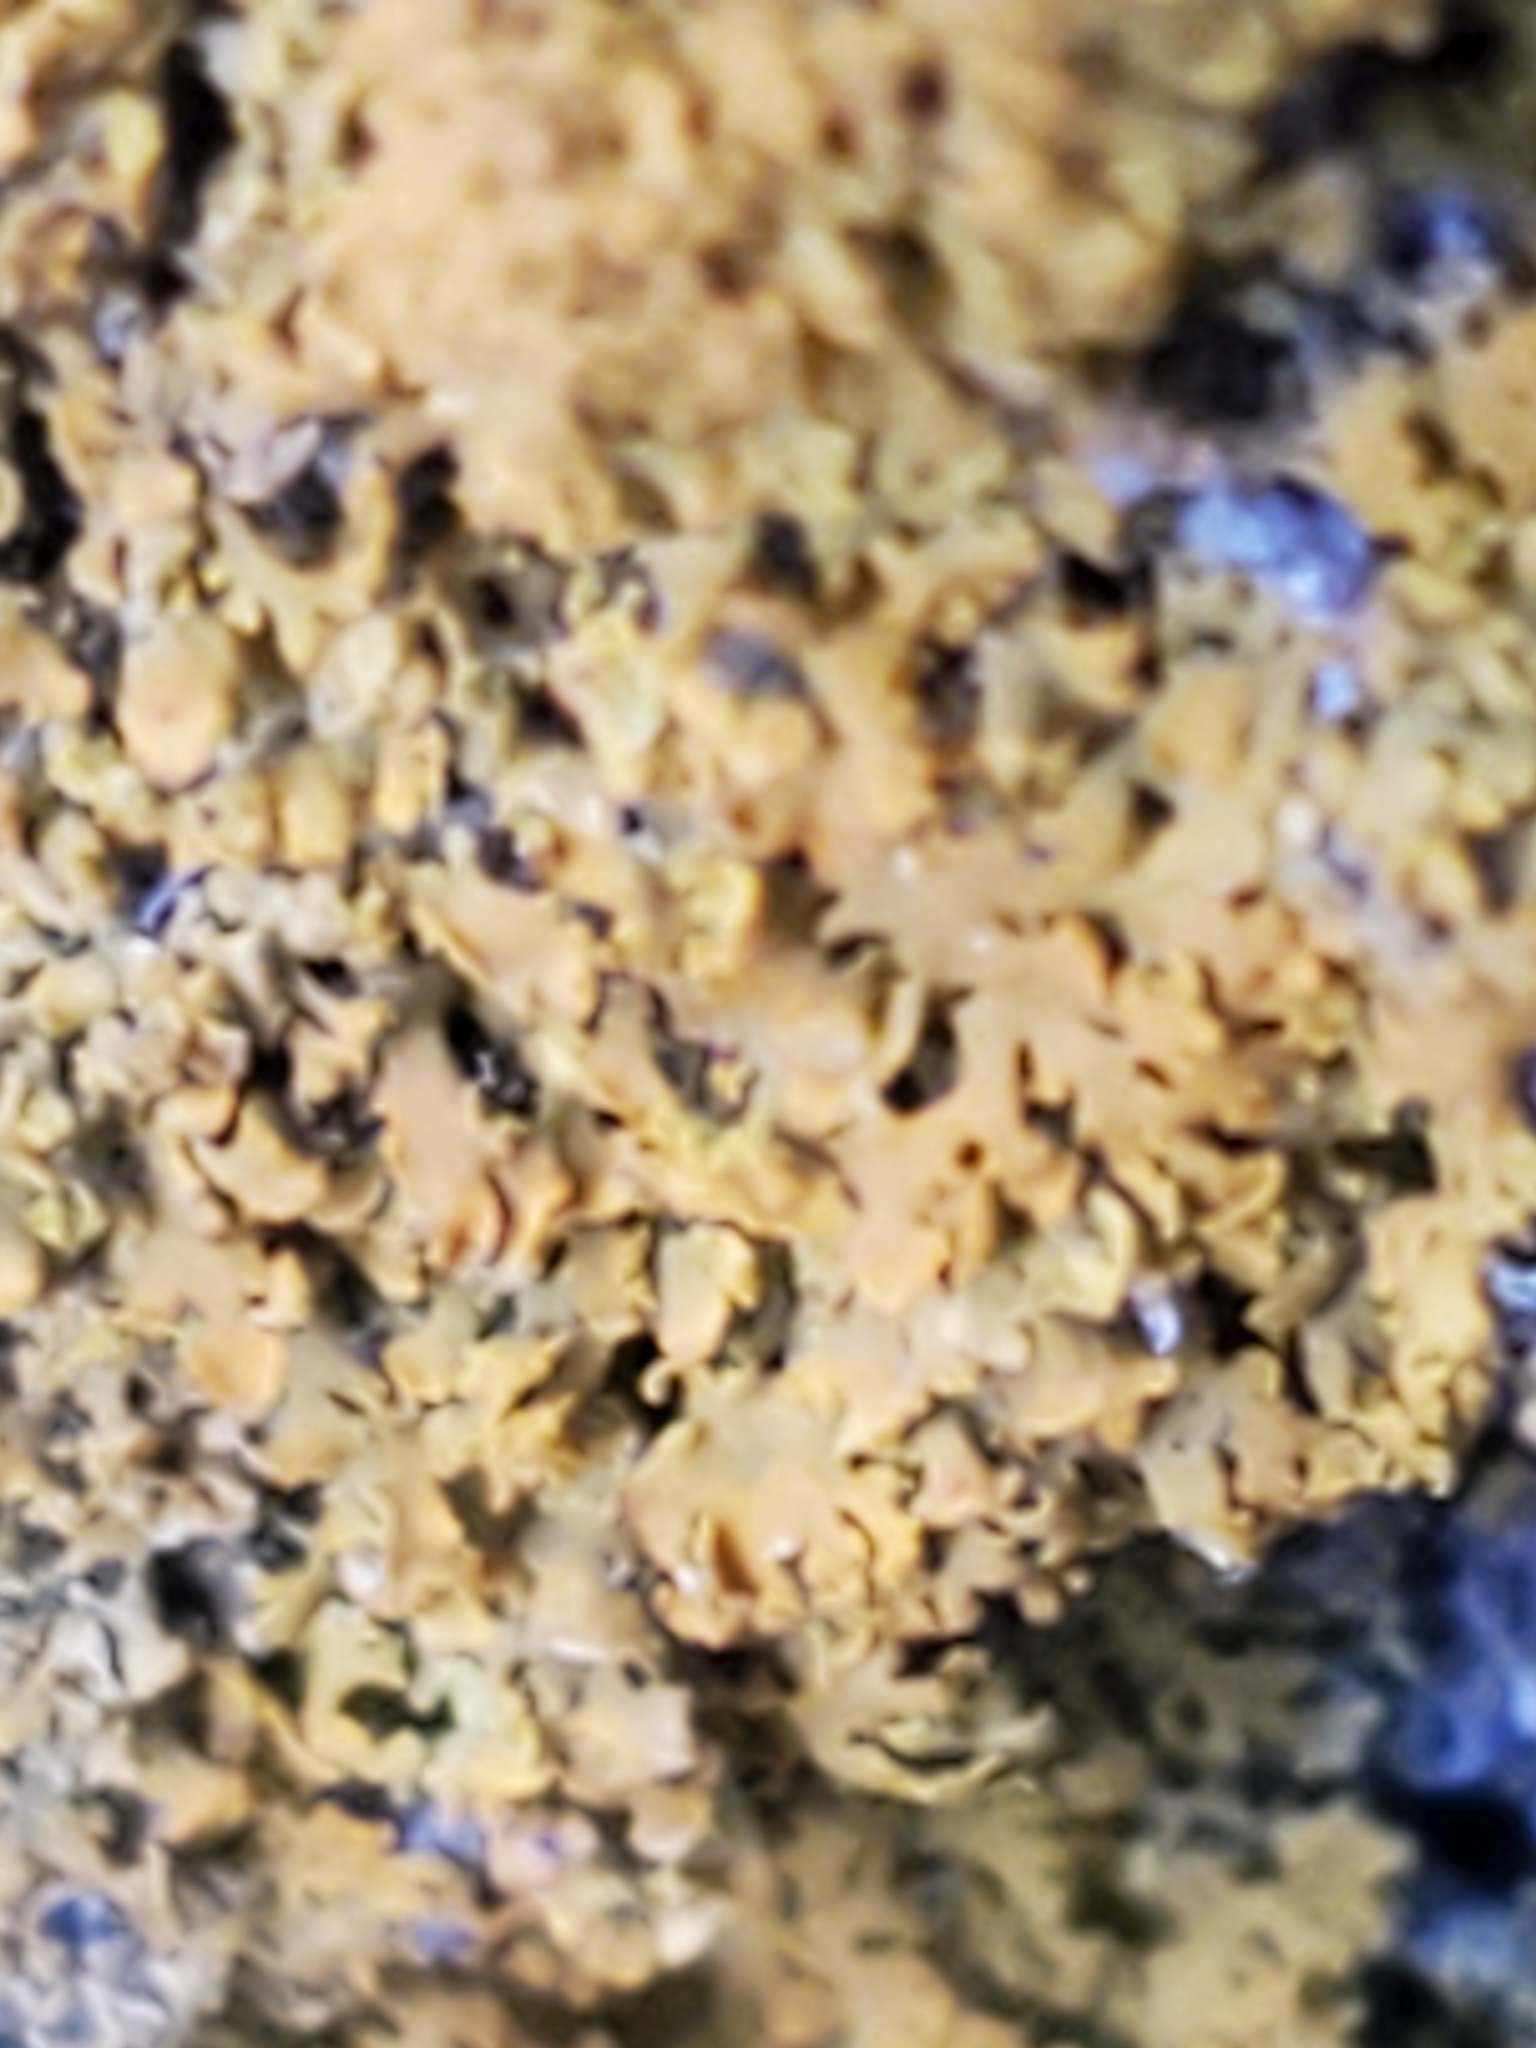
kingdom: Fungi
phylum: Ascomycota
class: Lecanoromycetes
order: Teloschistales
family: Teloschistaceae
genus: Gallowayella
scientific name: Gallowayella weberi
